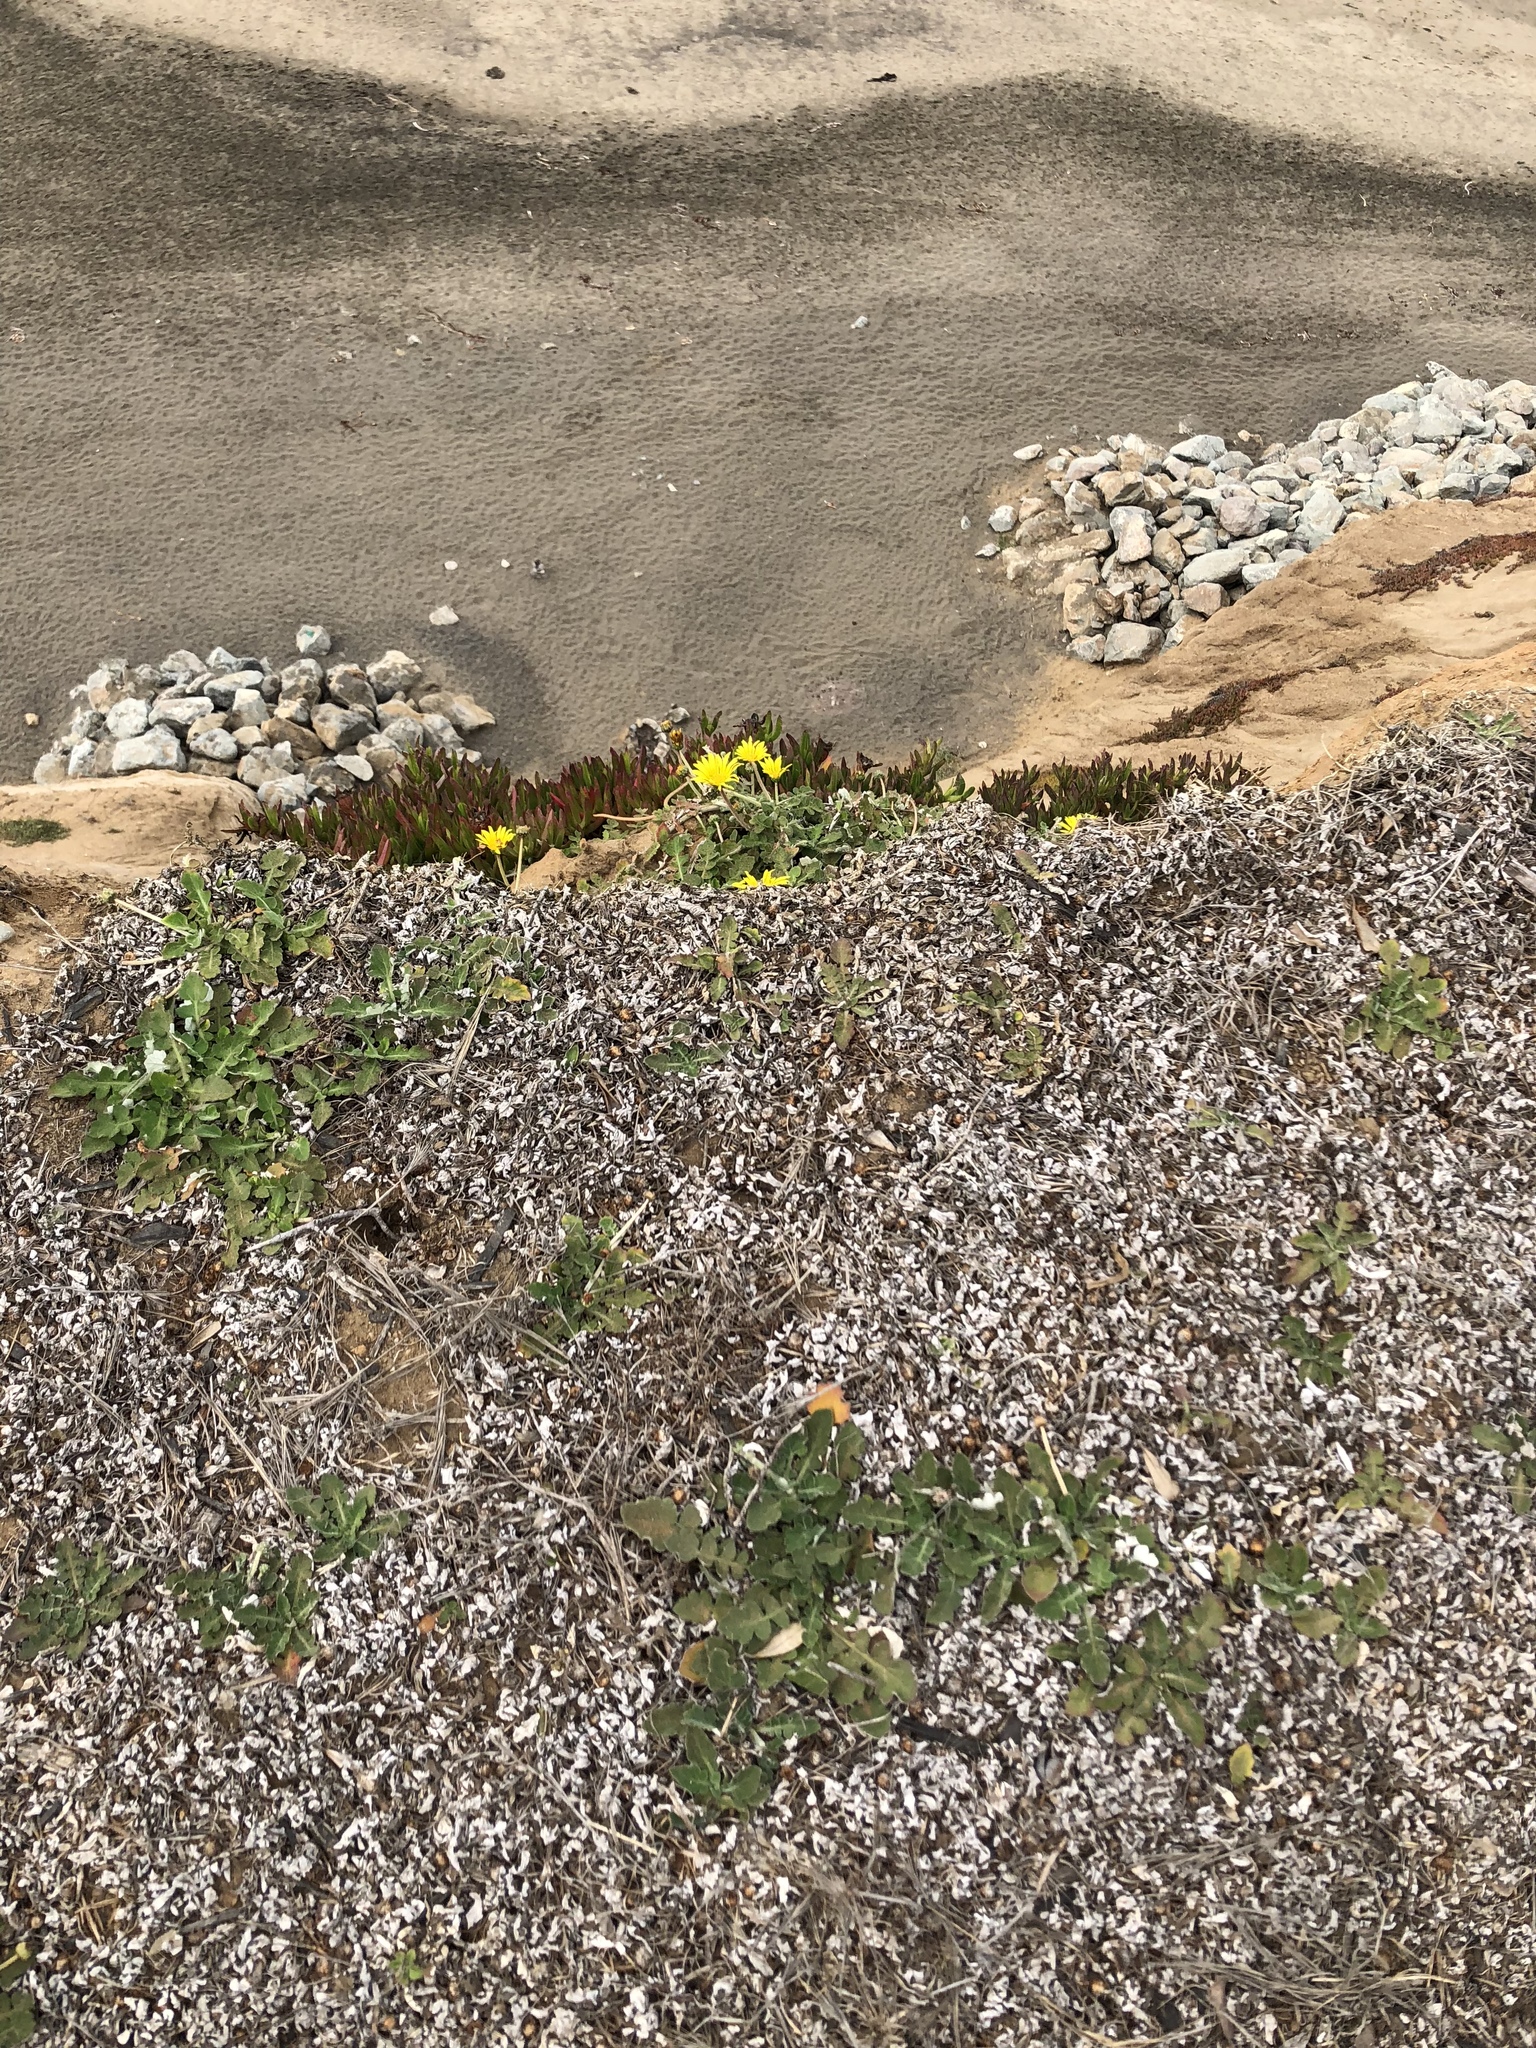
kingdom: Plantae
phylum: Tracheophyta
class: Magnoliopsida
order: Asterales
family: Asteraceae
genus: Arctotheca
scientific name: Arctotheca prostrata
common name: Capeweed
